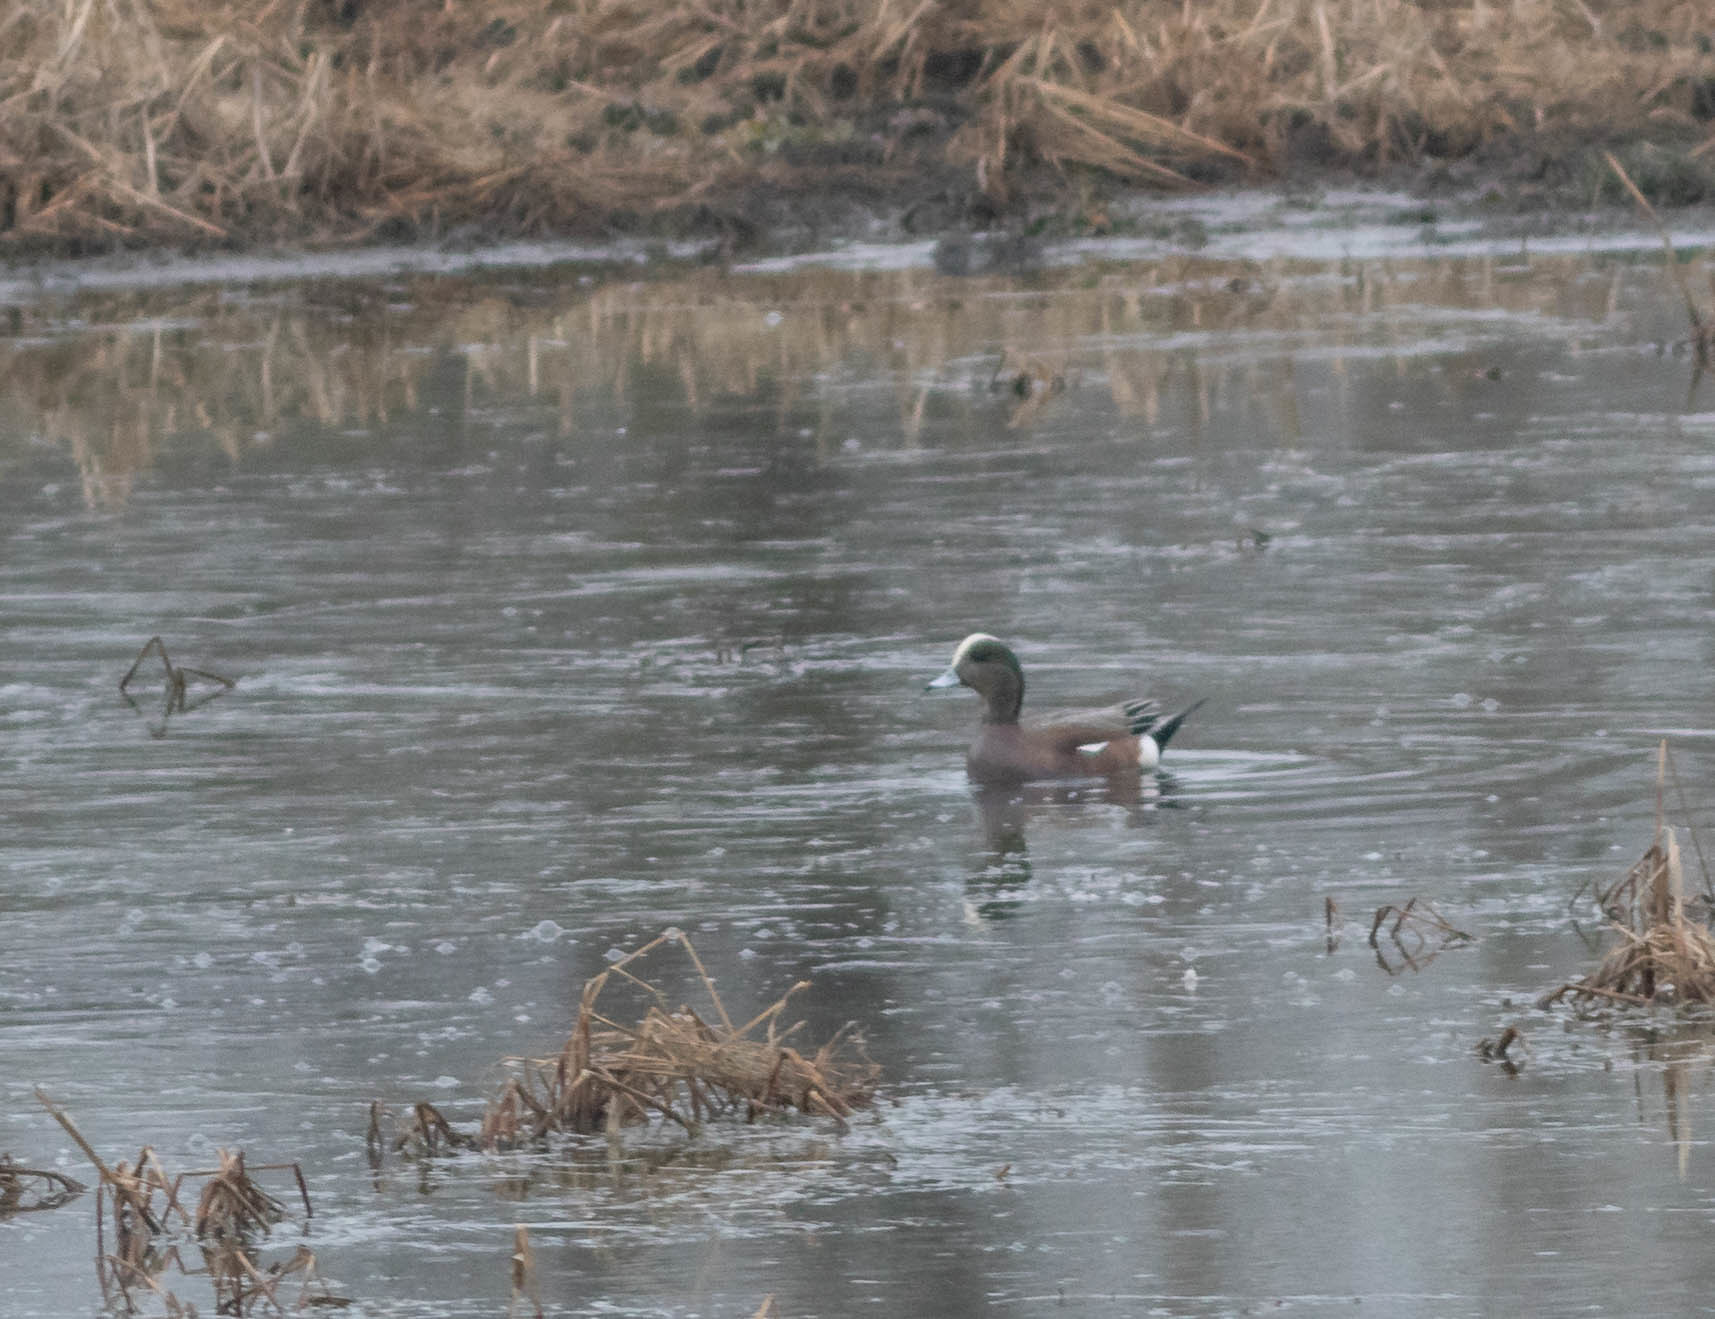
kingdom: Animalia
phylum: Chordata
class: Aves
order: Anseriformes
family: Anatidae
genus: Mareca
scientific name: Mareca americana
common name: American wigeon
